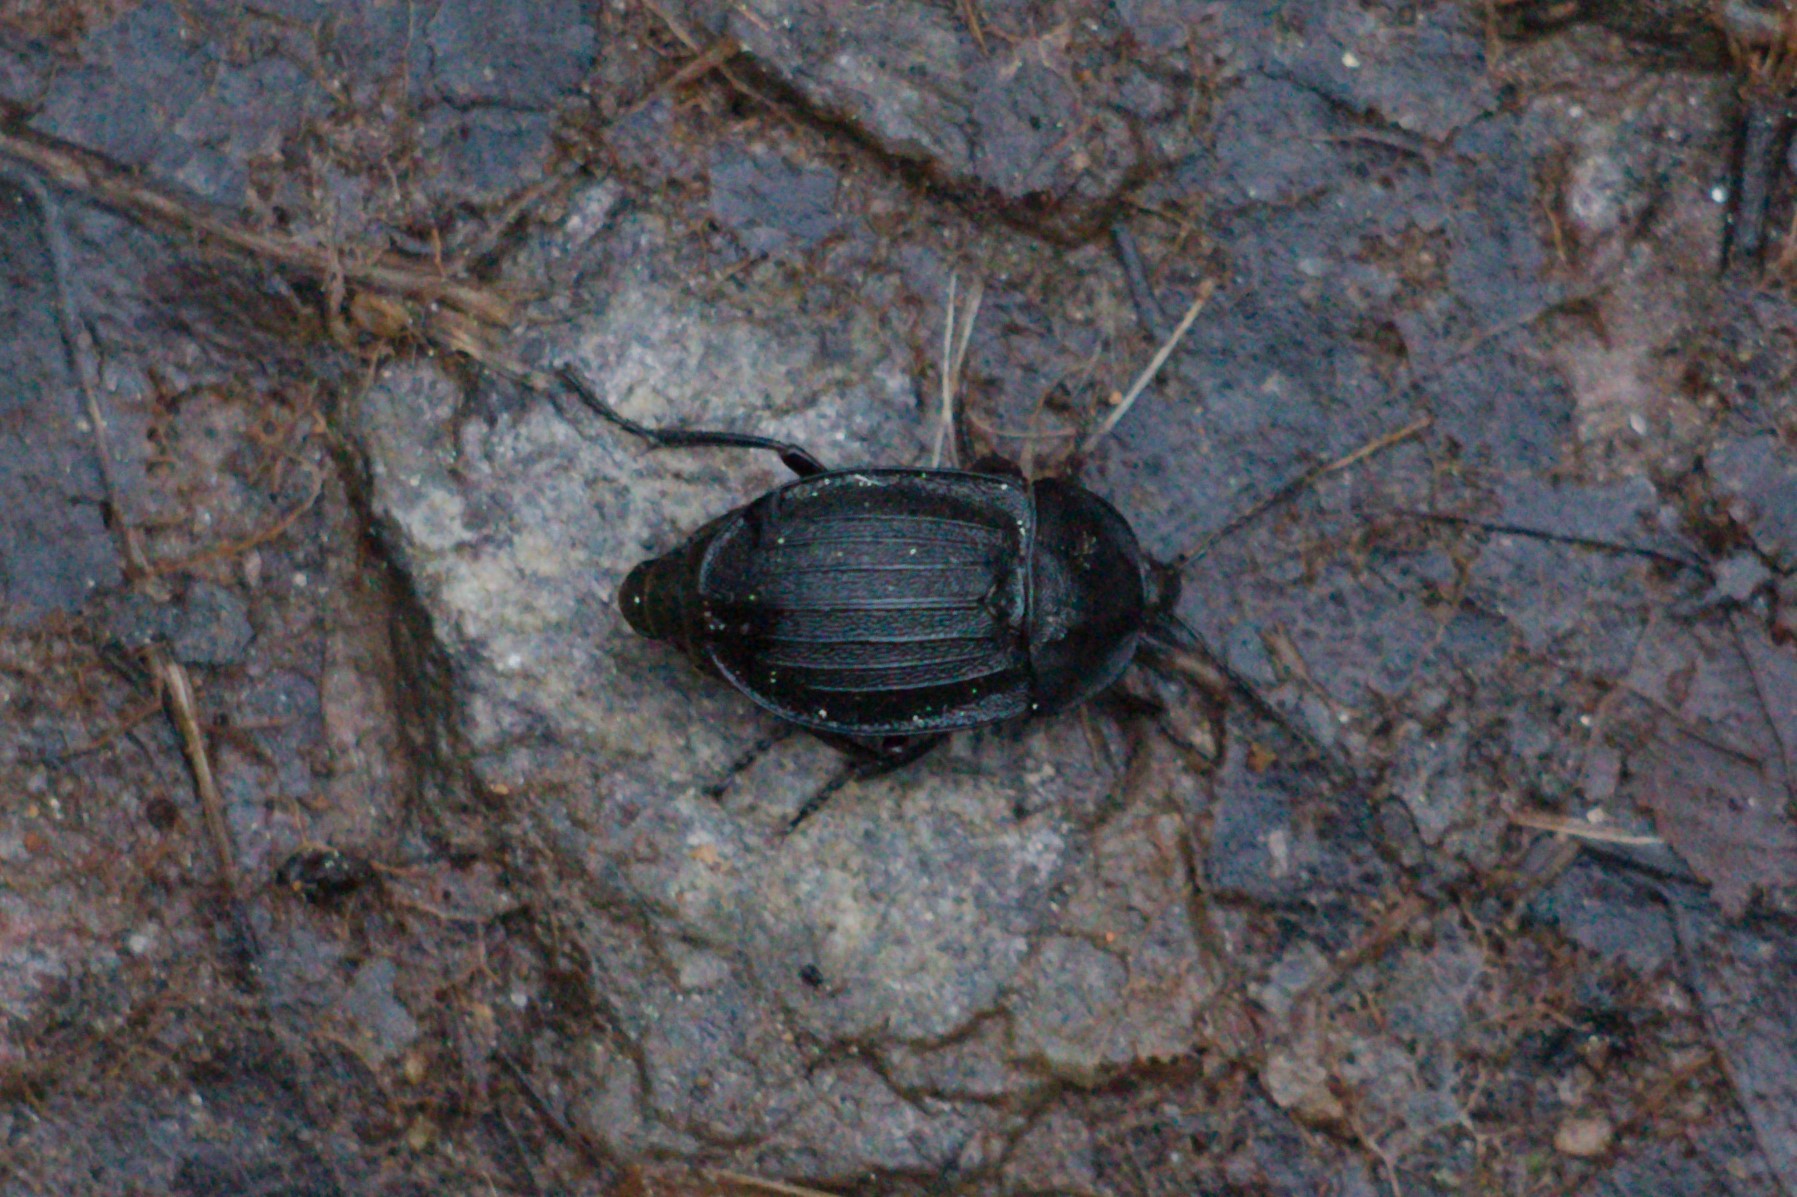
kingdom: Animalia
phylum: Arthropoda
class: Insecta
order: Coleoptera
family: Staphylinidae
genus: Silpha
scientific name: Silpha atrata
